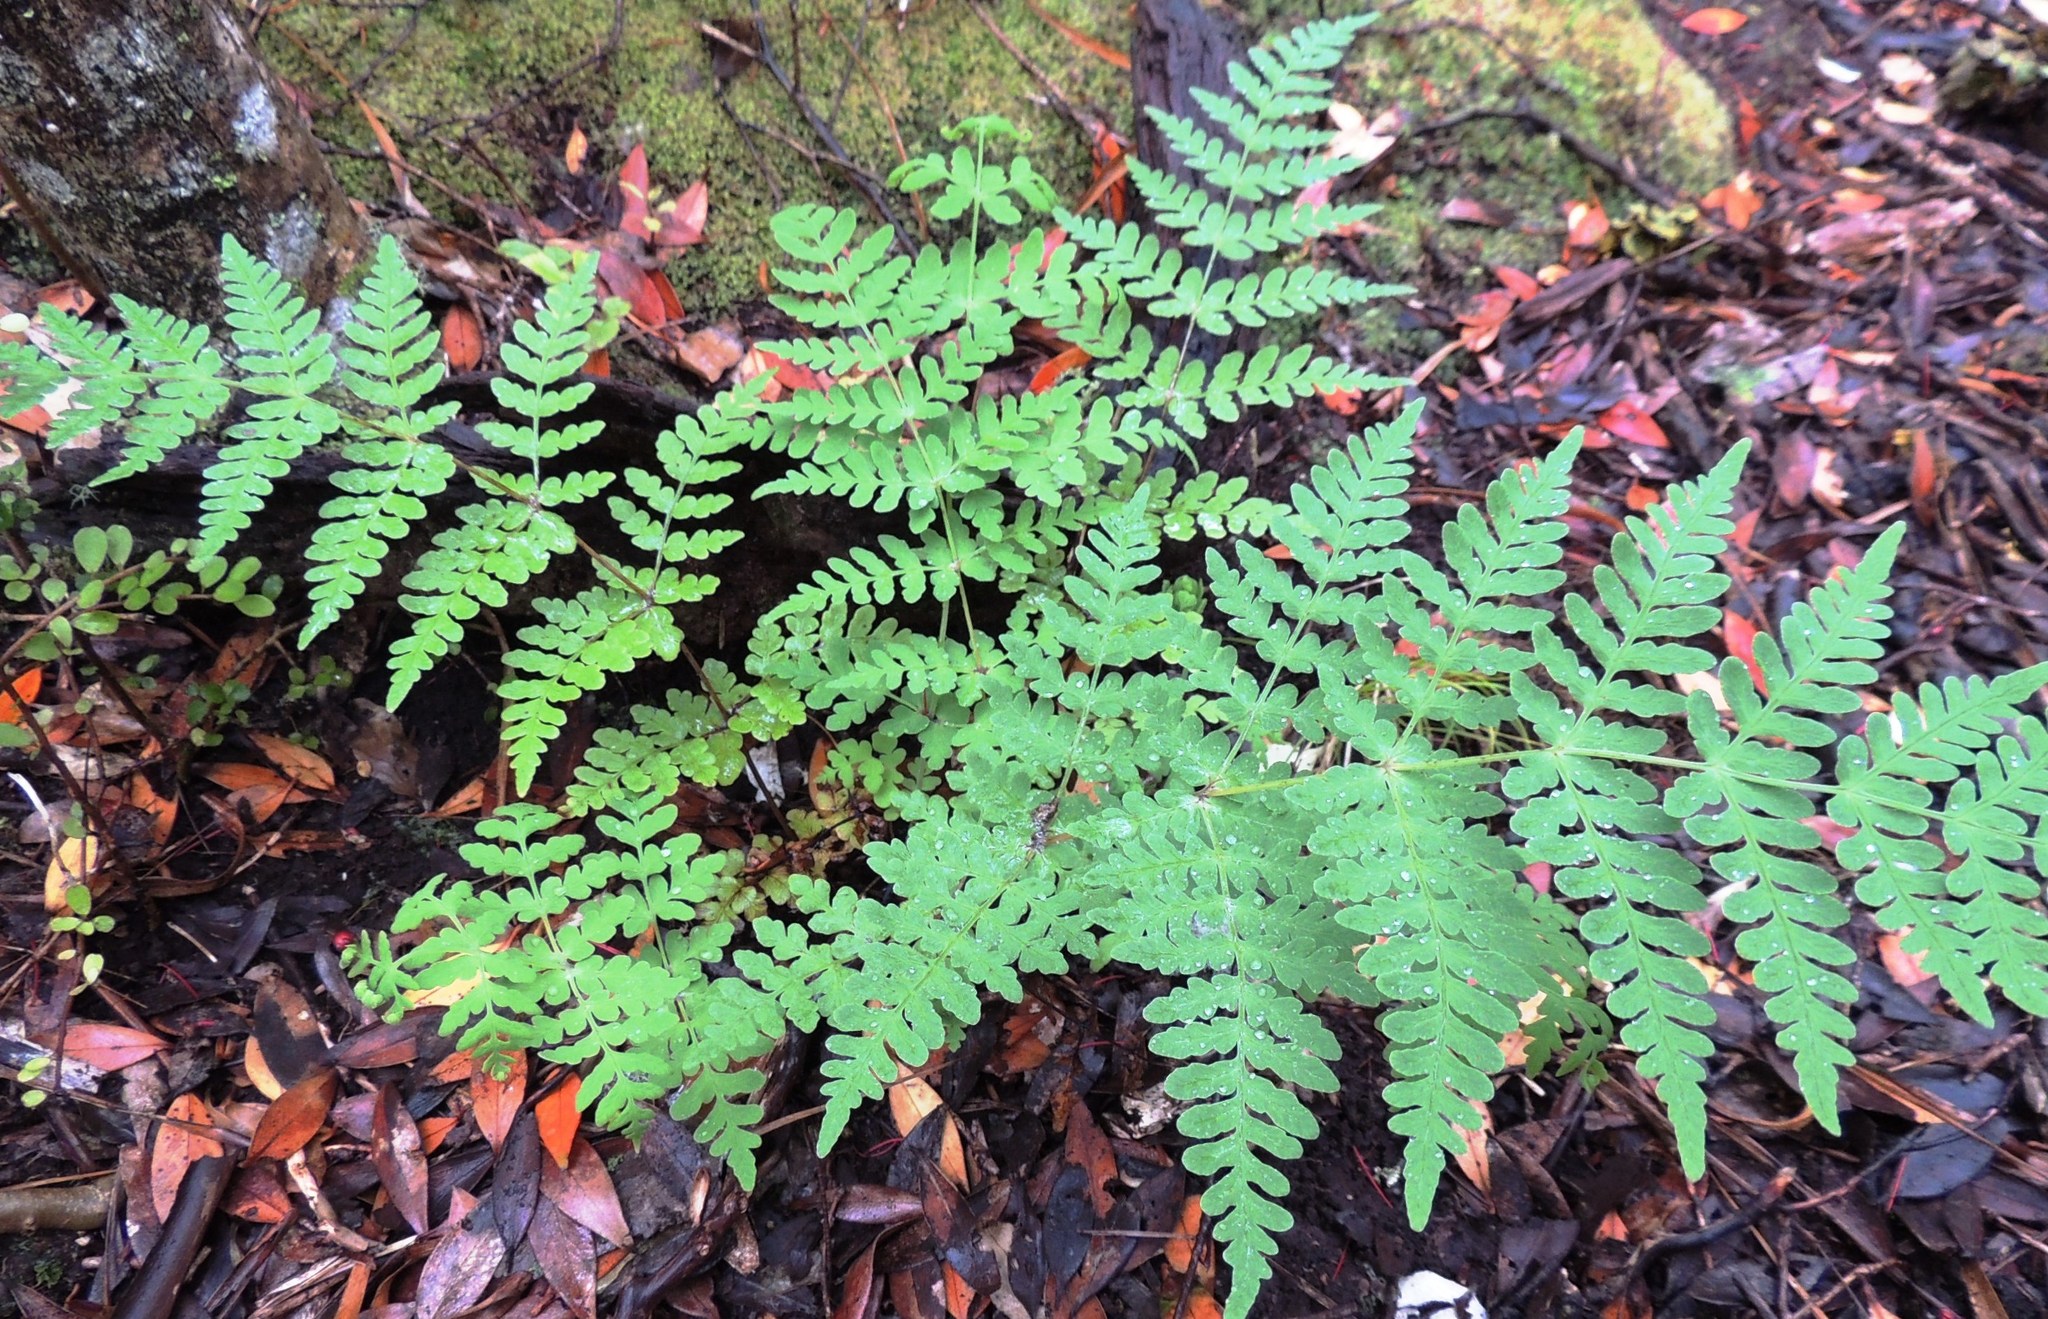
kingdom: Plantae
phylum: Tracheophyta
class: Polypodiopsida
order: Polypodiales
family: Dennstaedtiaceae
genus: Histiopteris
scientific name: Histiopteris incisa
